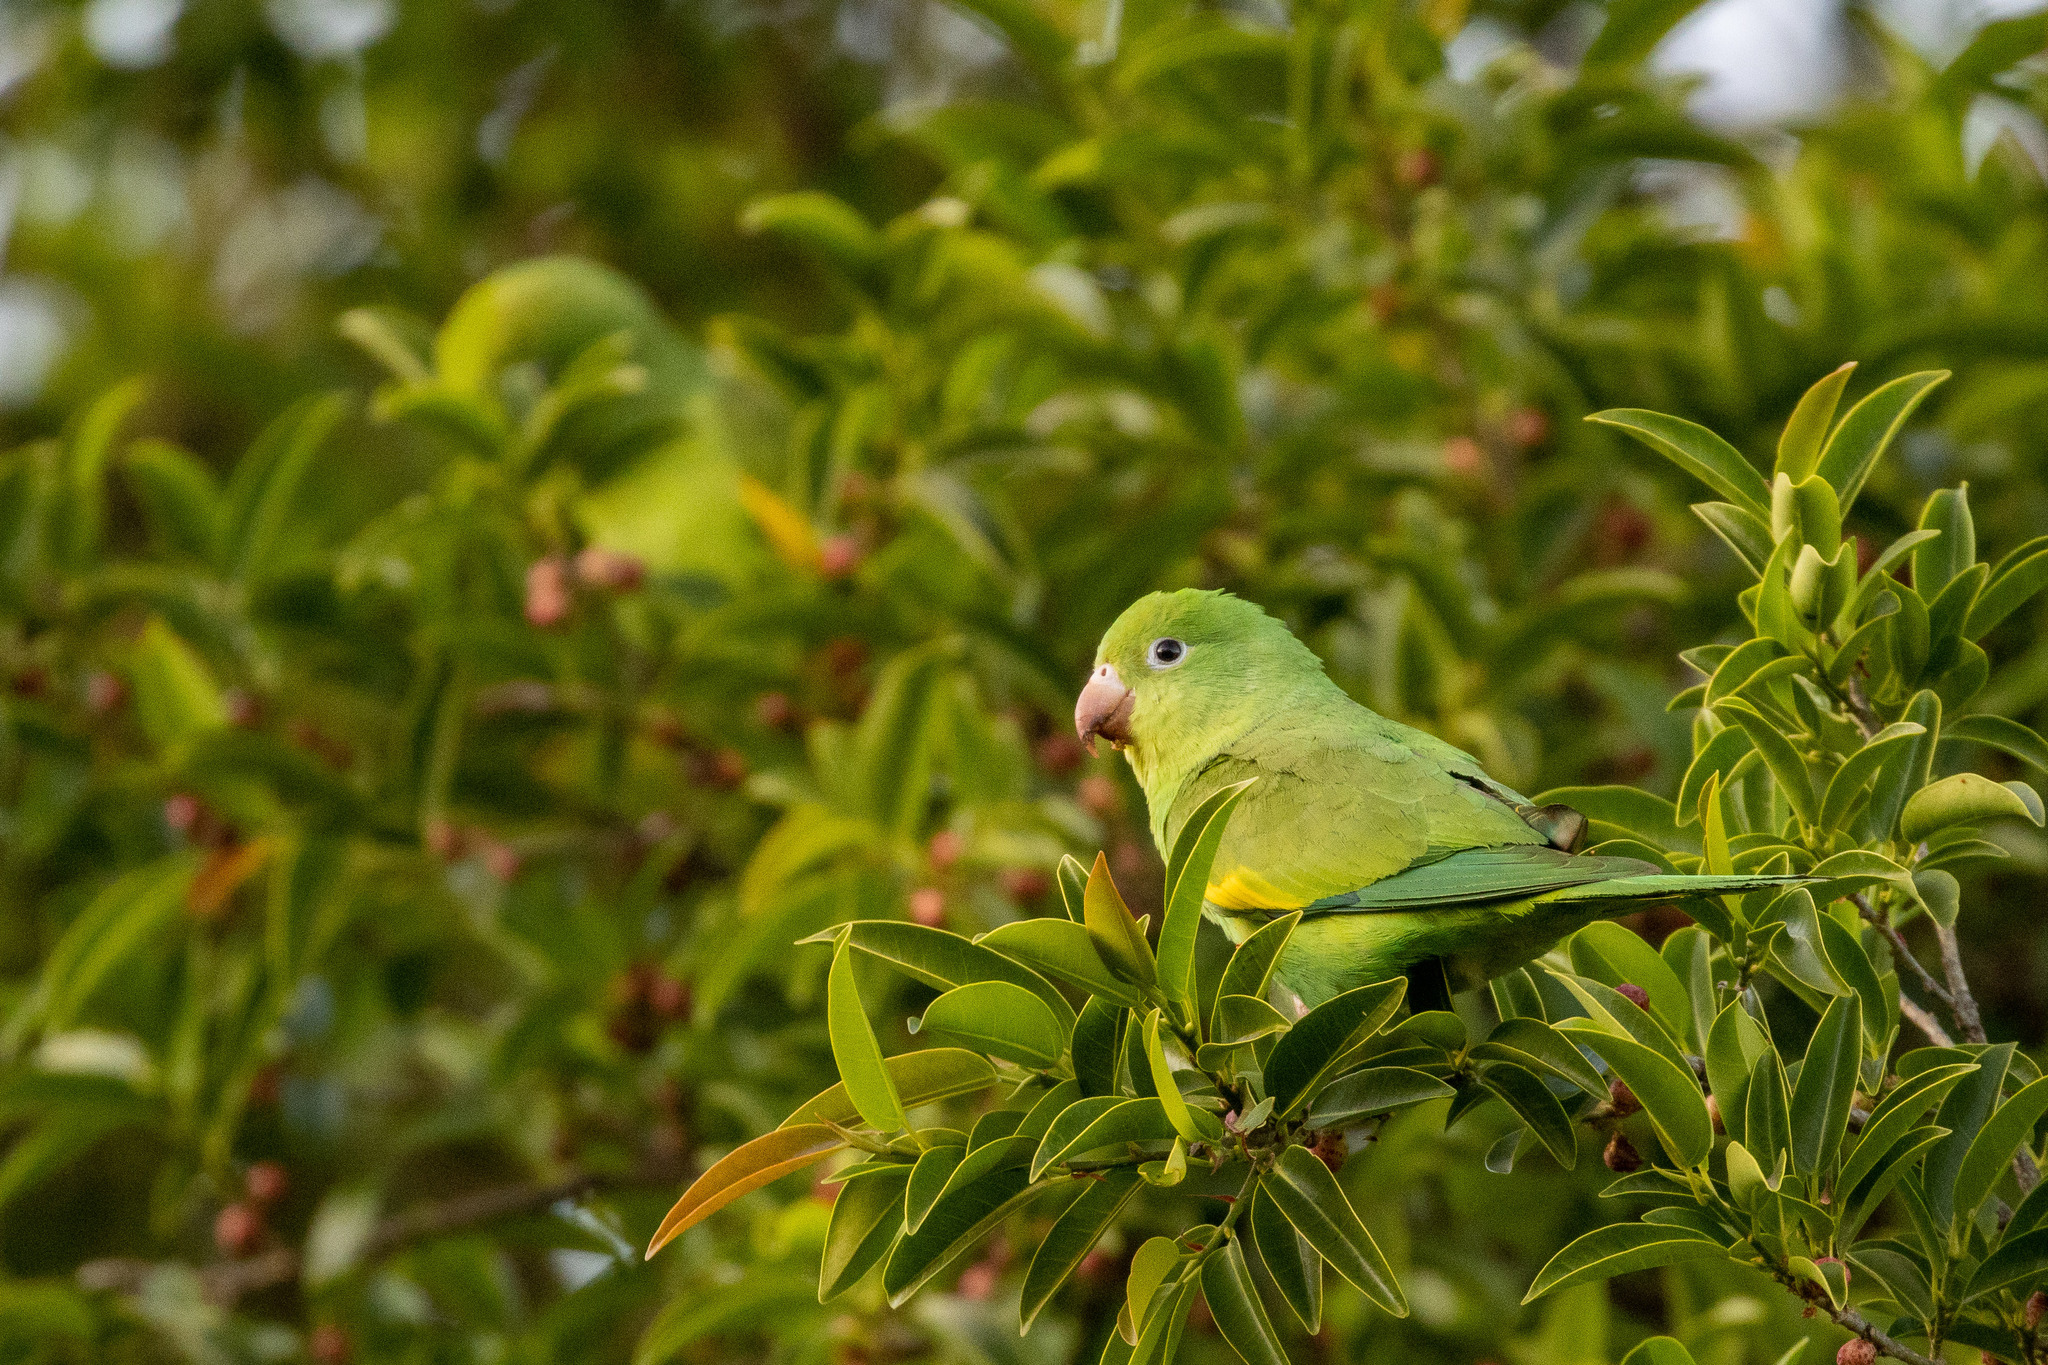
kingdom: Animalia
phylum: Chordata
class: Aves
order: Psittaciformes
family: Psittacidae
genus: Brotogeris
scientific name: Brotogeris chiriri
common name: Yellow-chevroned parakeet
